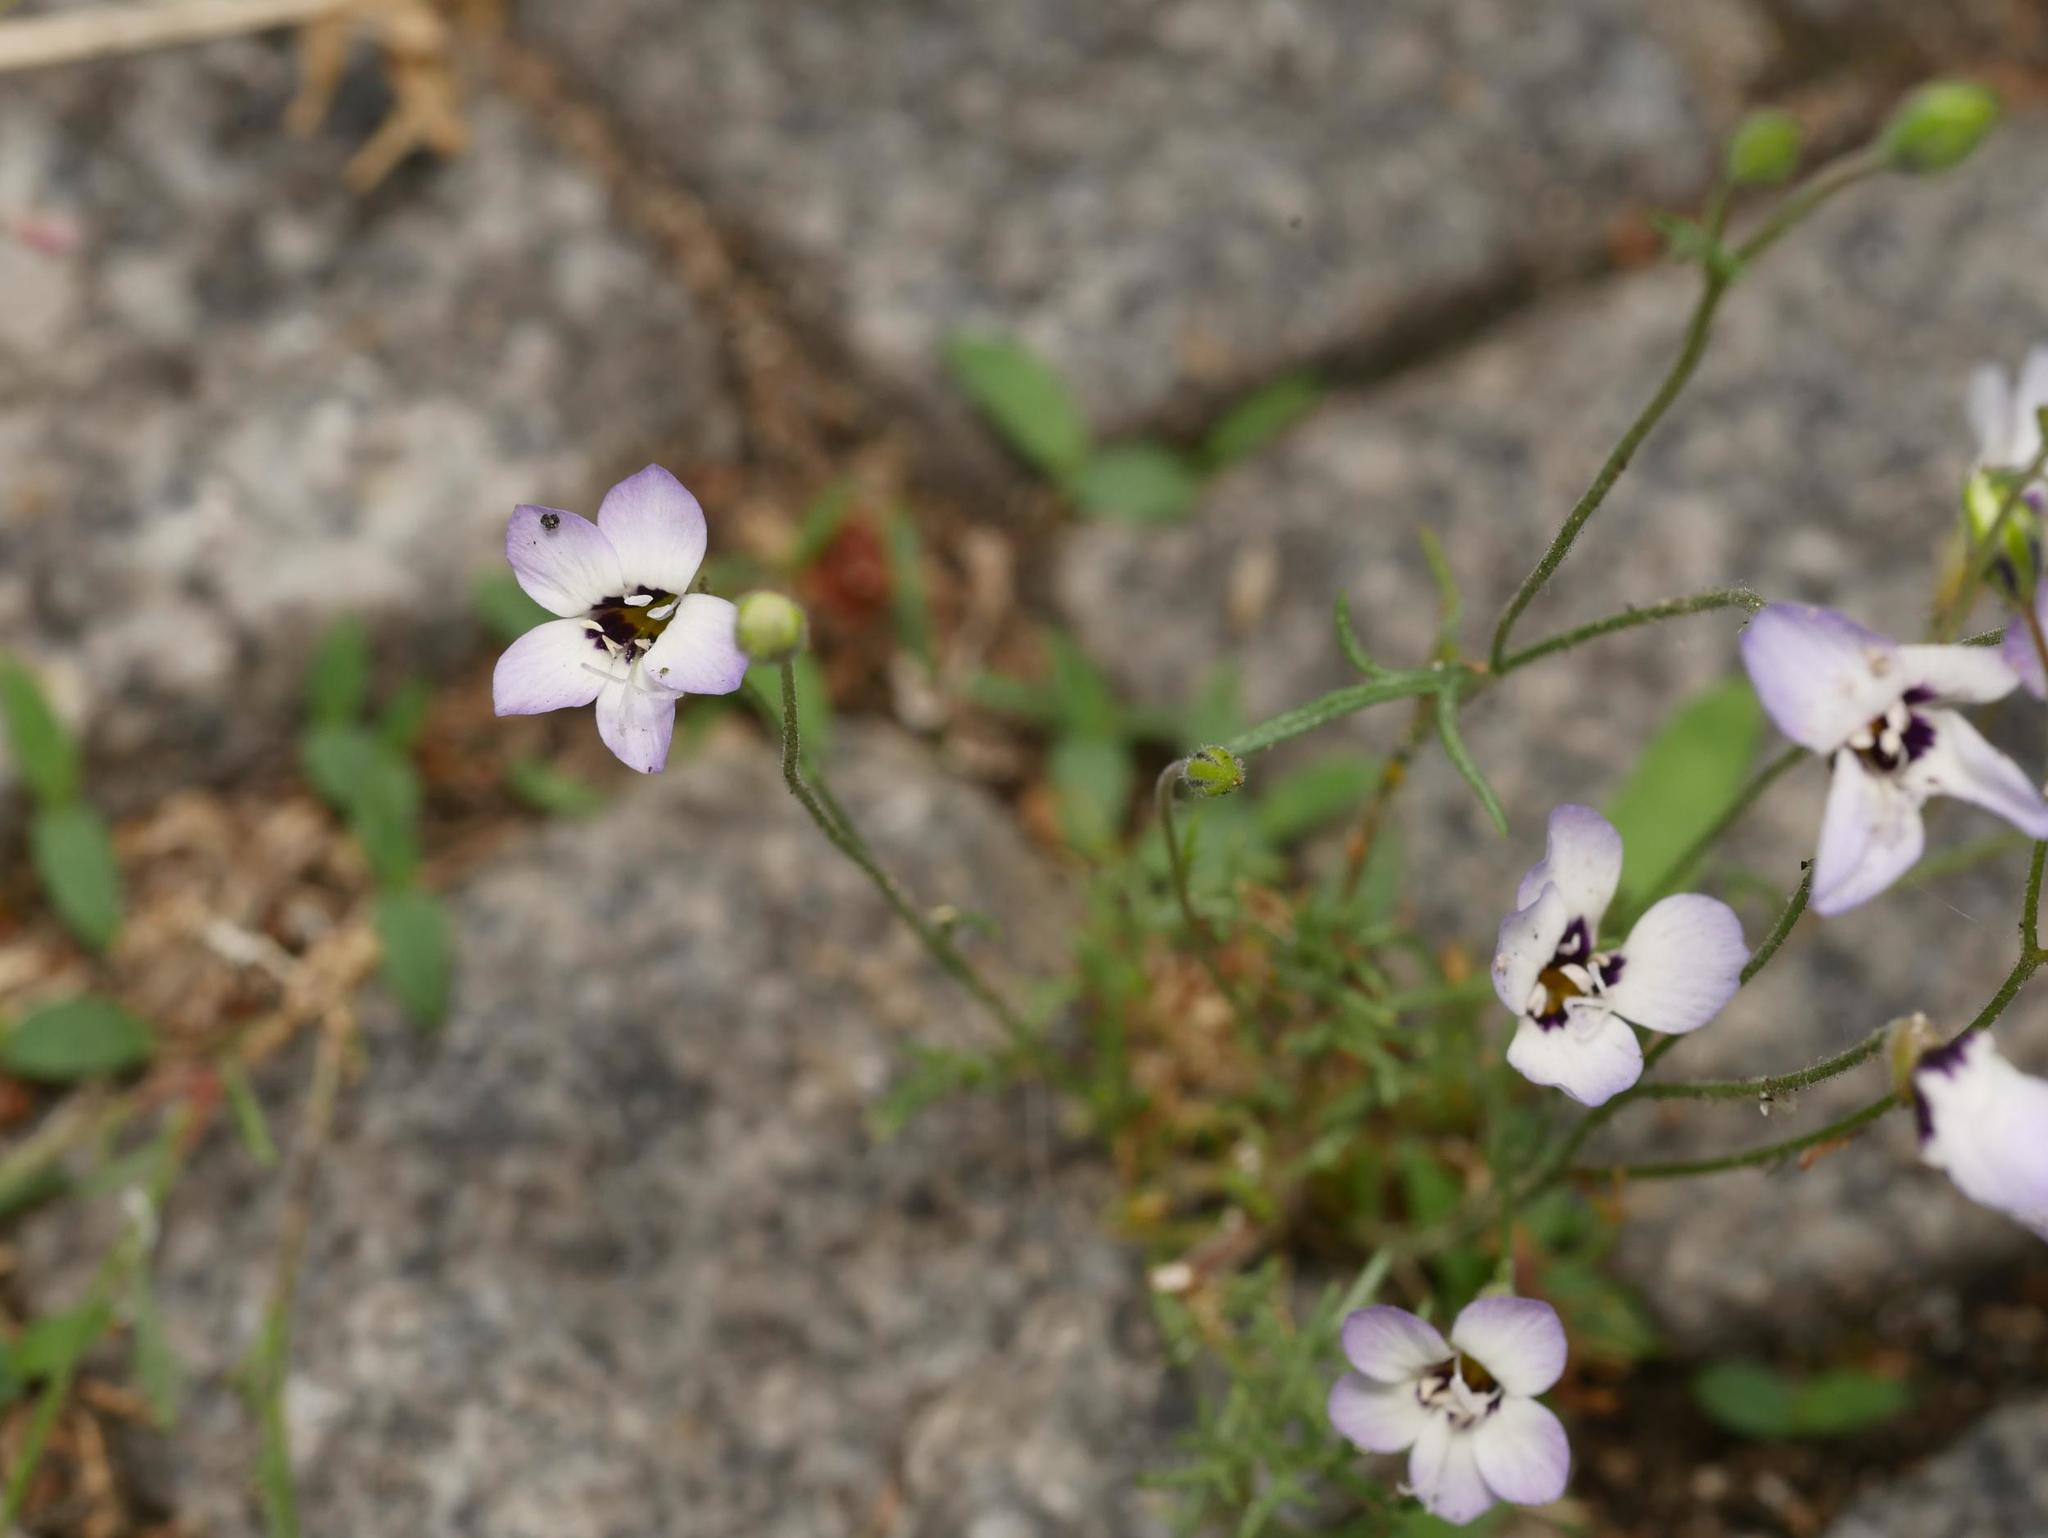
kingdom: Plantae
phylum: Tracheophyta
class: Magnoliopsida
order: Ericales
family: Polemoniaceae
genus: Gilia
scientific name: Gilia tricolor
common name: Bird's-eyes
